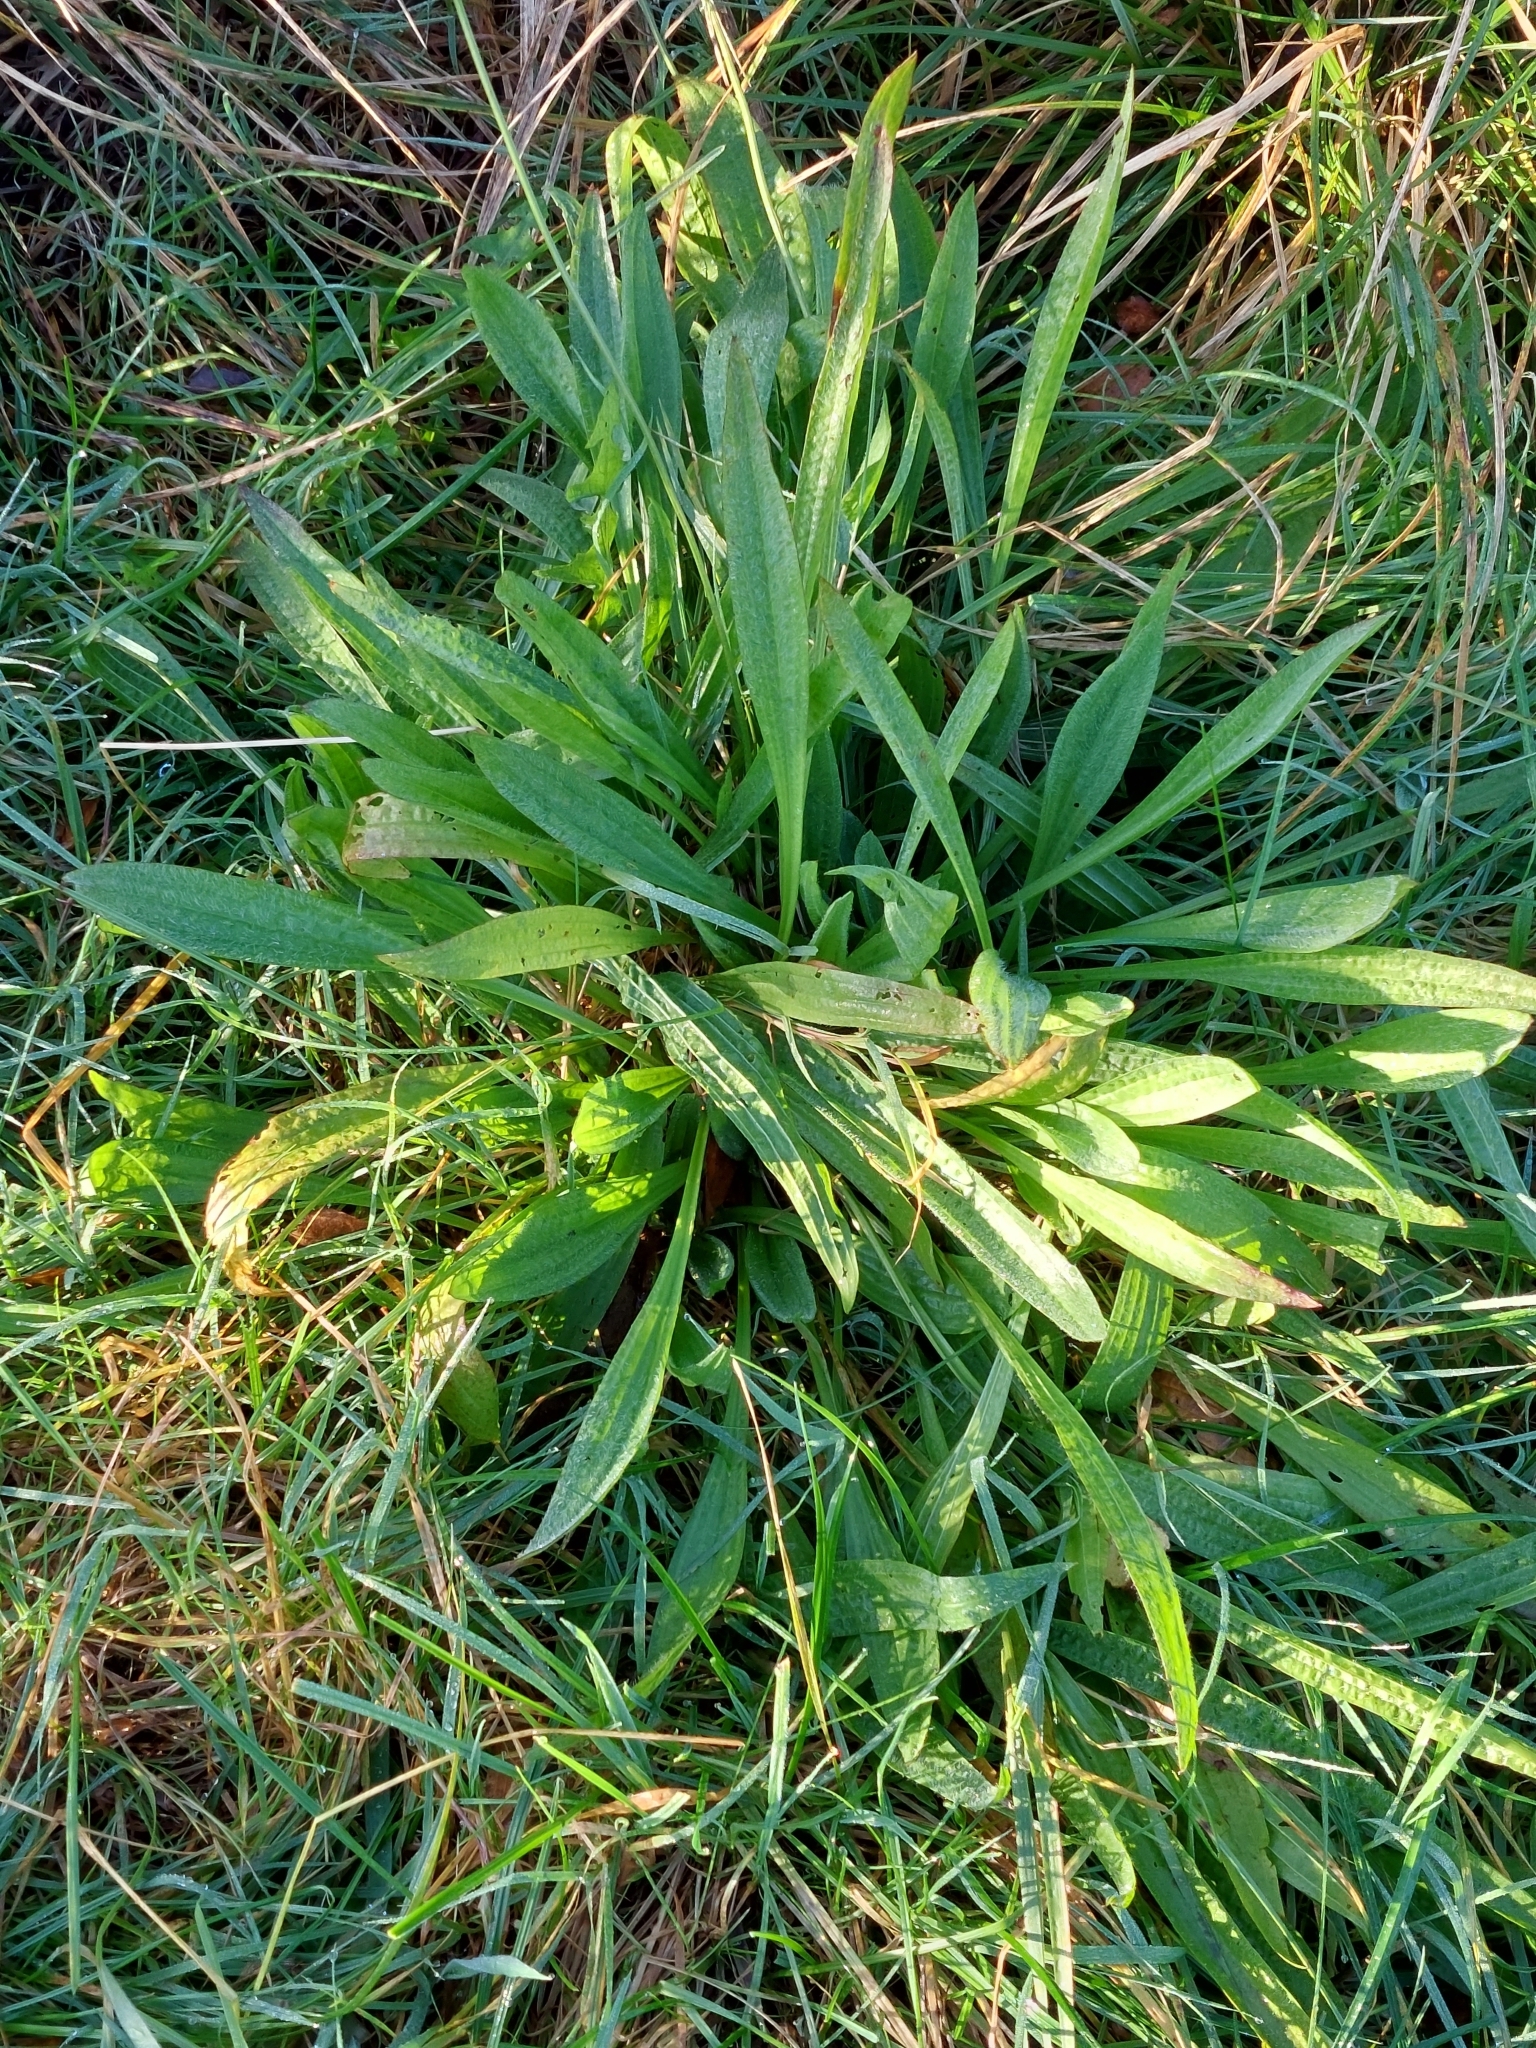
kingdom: Plantae
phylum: Tracheophyta
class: Magnoliopsida
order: Lamiales
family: Plantaginaceae
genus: Plantago
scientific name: Plantago lanceolata
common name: Ribwort plantain
